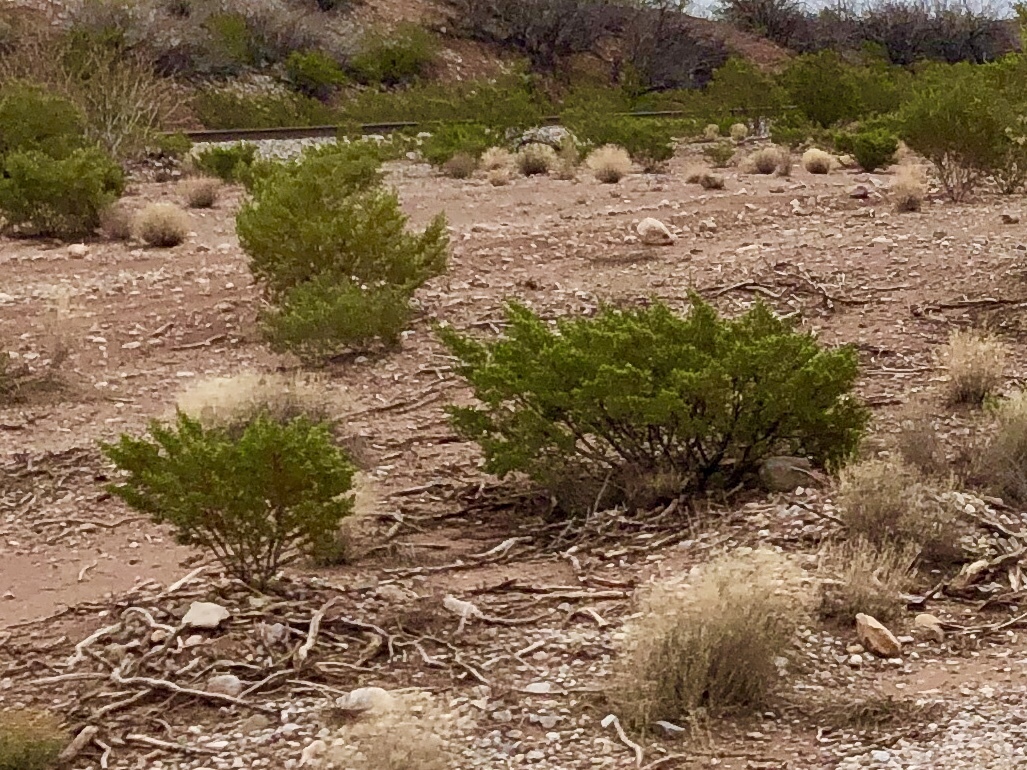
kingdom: Plantae
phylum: Tracheophyta
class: Magnoliopsida
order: Zygophyllales
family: Zygophyllaceae
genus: Larrea
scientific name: Larrea tridentata
